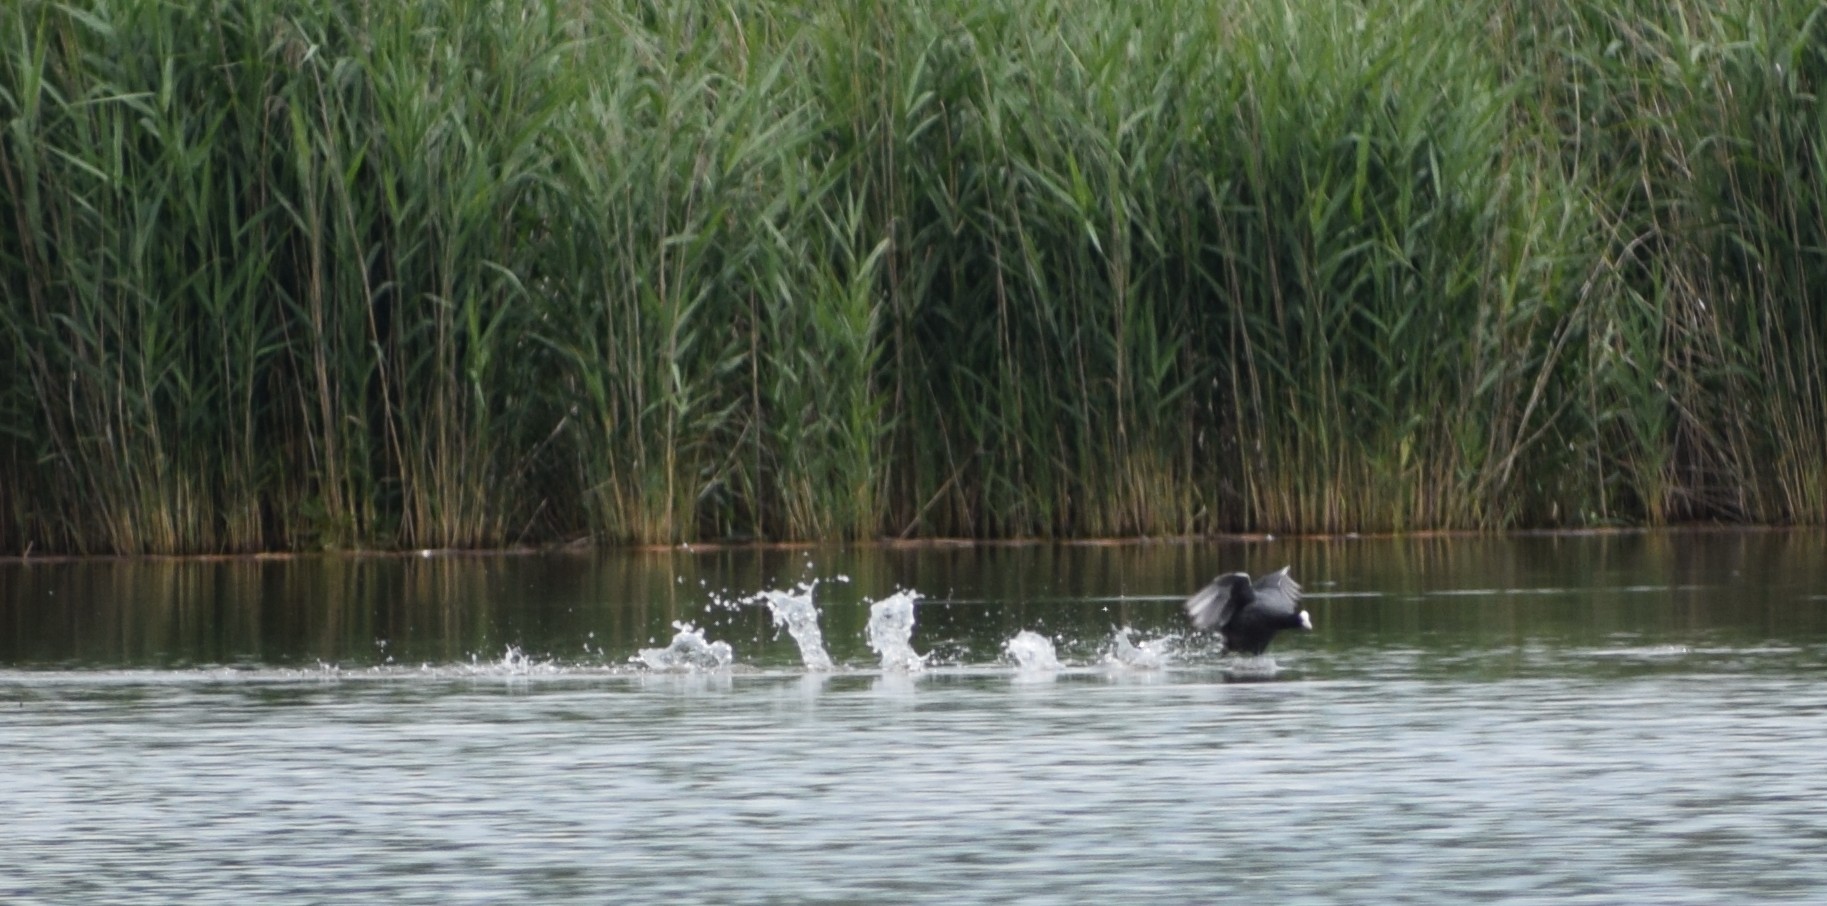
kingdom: Animalia
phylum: Chordata
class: Aves
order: Gruiformes
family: Rallidae
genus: Fulica
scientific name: Fulica atra
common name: Eurasian coot
